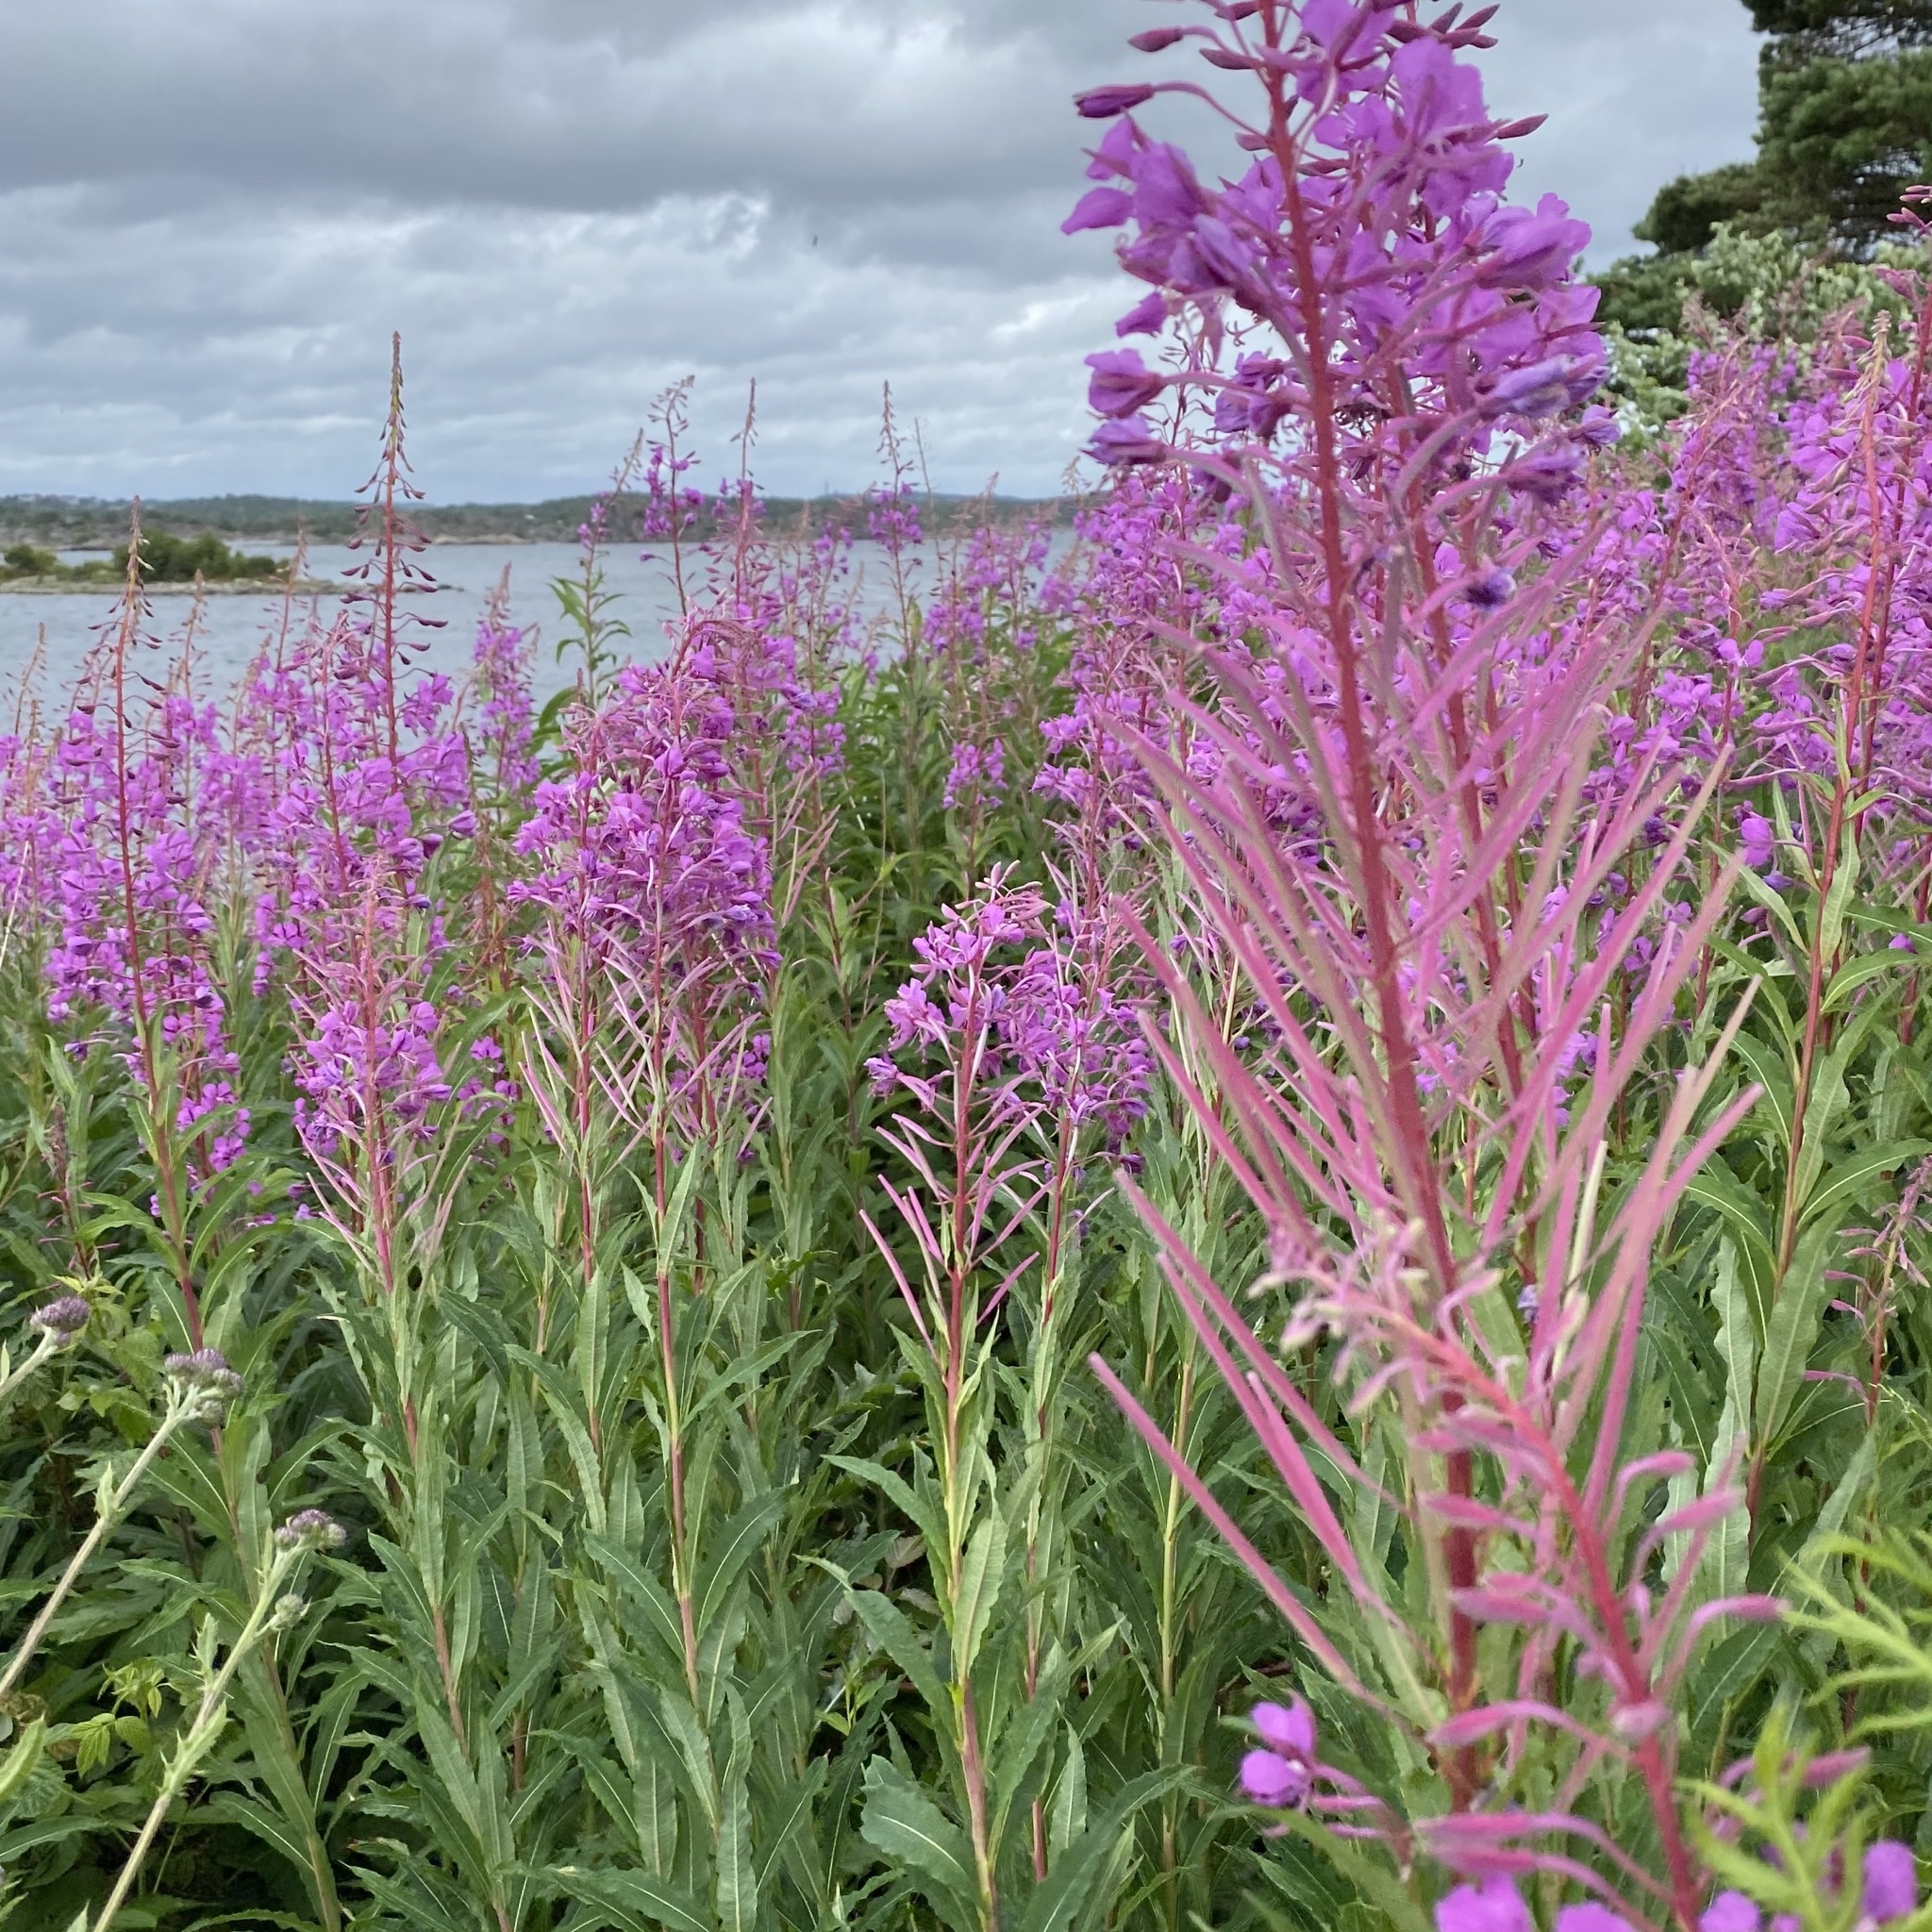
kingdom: Plantae
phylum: Tracheophyta
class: Magnoliopsida
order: Myrtales
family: Onagraceae
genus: Chamaenerion
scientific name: Chamaenerion angustifolium
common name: Fireweed
